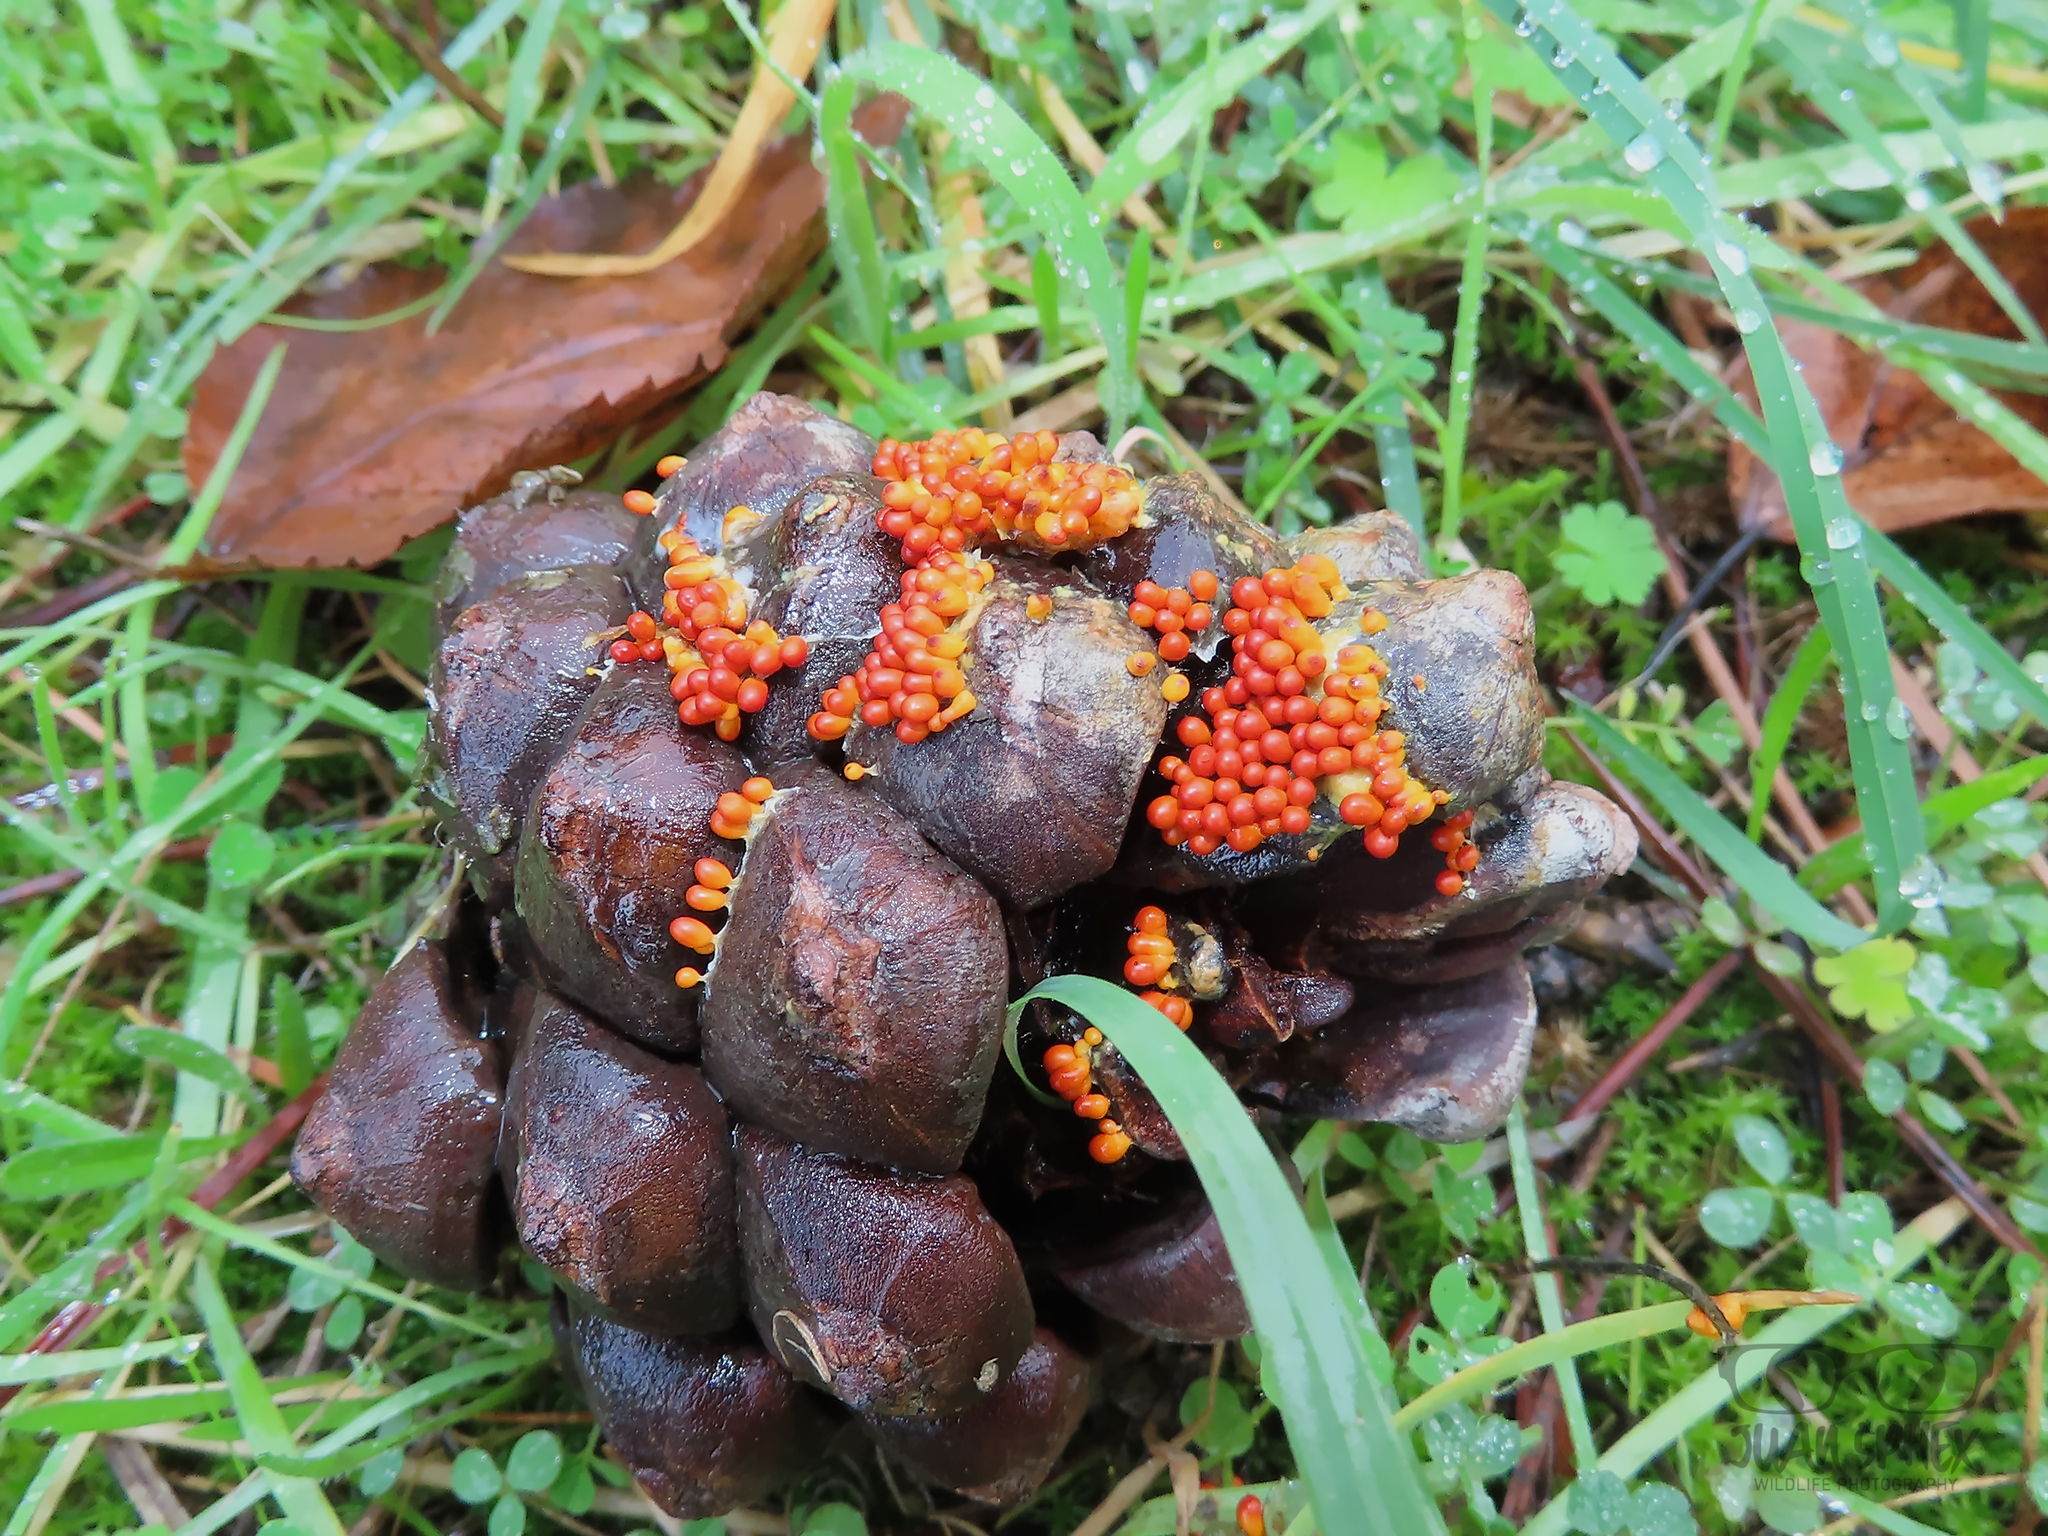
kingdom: Protozoa
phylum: Mycetozoa
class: Myxomycetes
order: Physarales
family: Physaraceae
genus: Leocarpus
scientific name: Leocarpus fragilis
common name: Insect-egg slime
